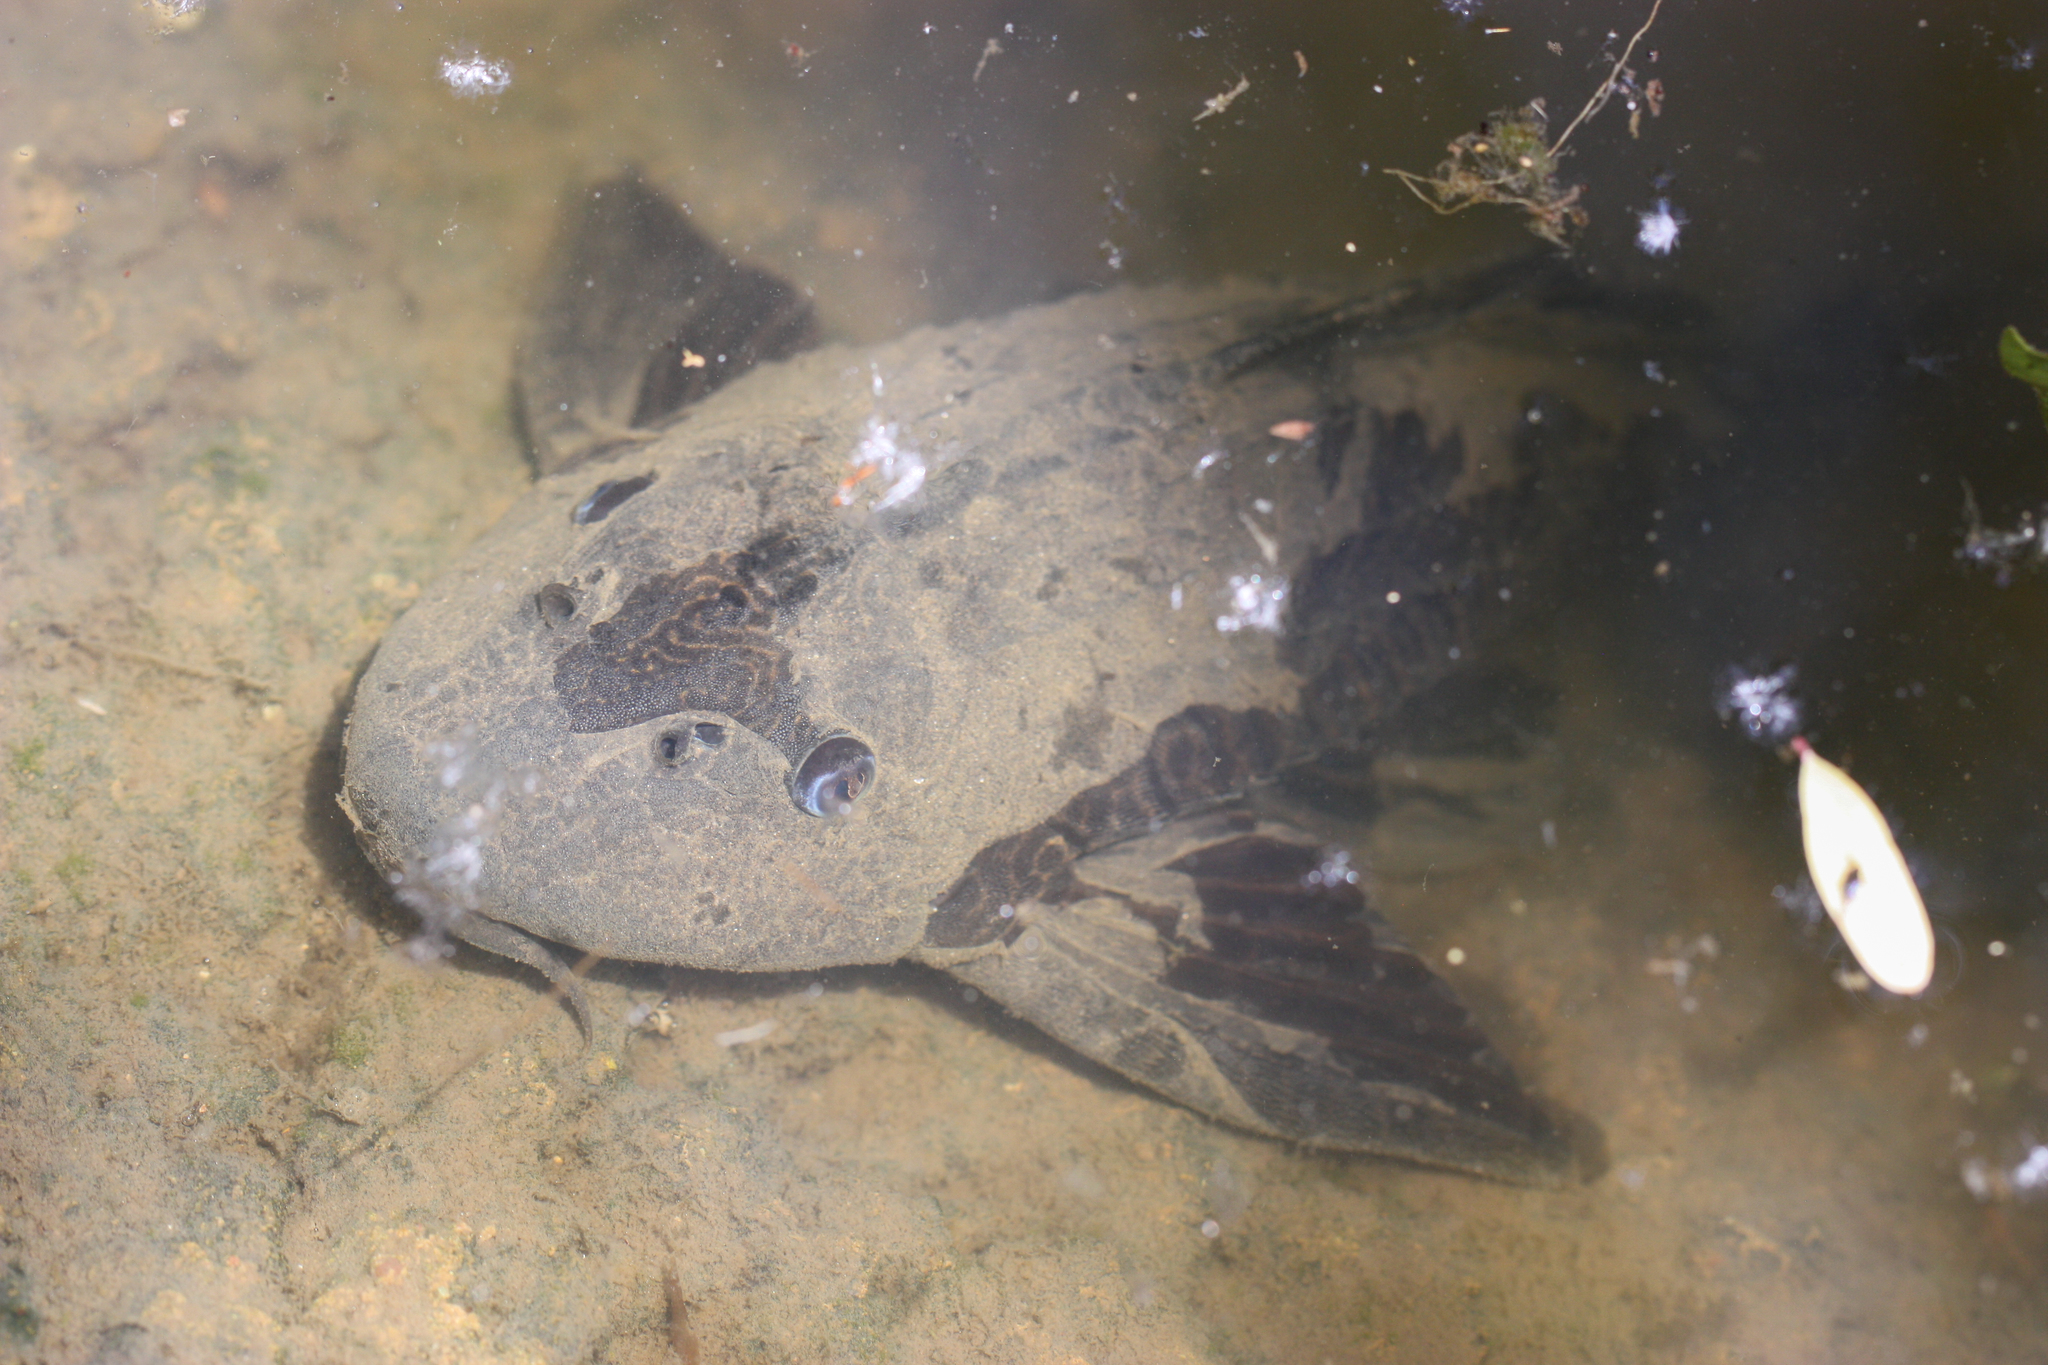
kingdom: Animalia
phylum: Chordata
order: Siluriformes
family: Loricariidae
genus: Pterygoplichthys
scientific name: Pterygoplichthys
